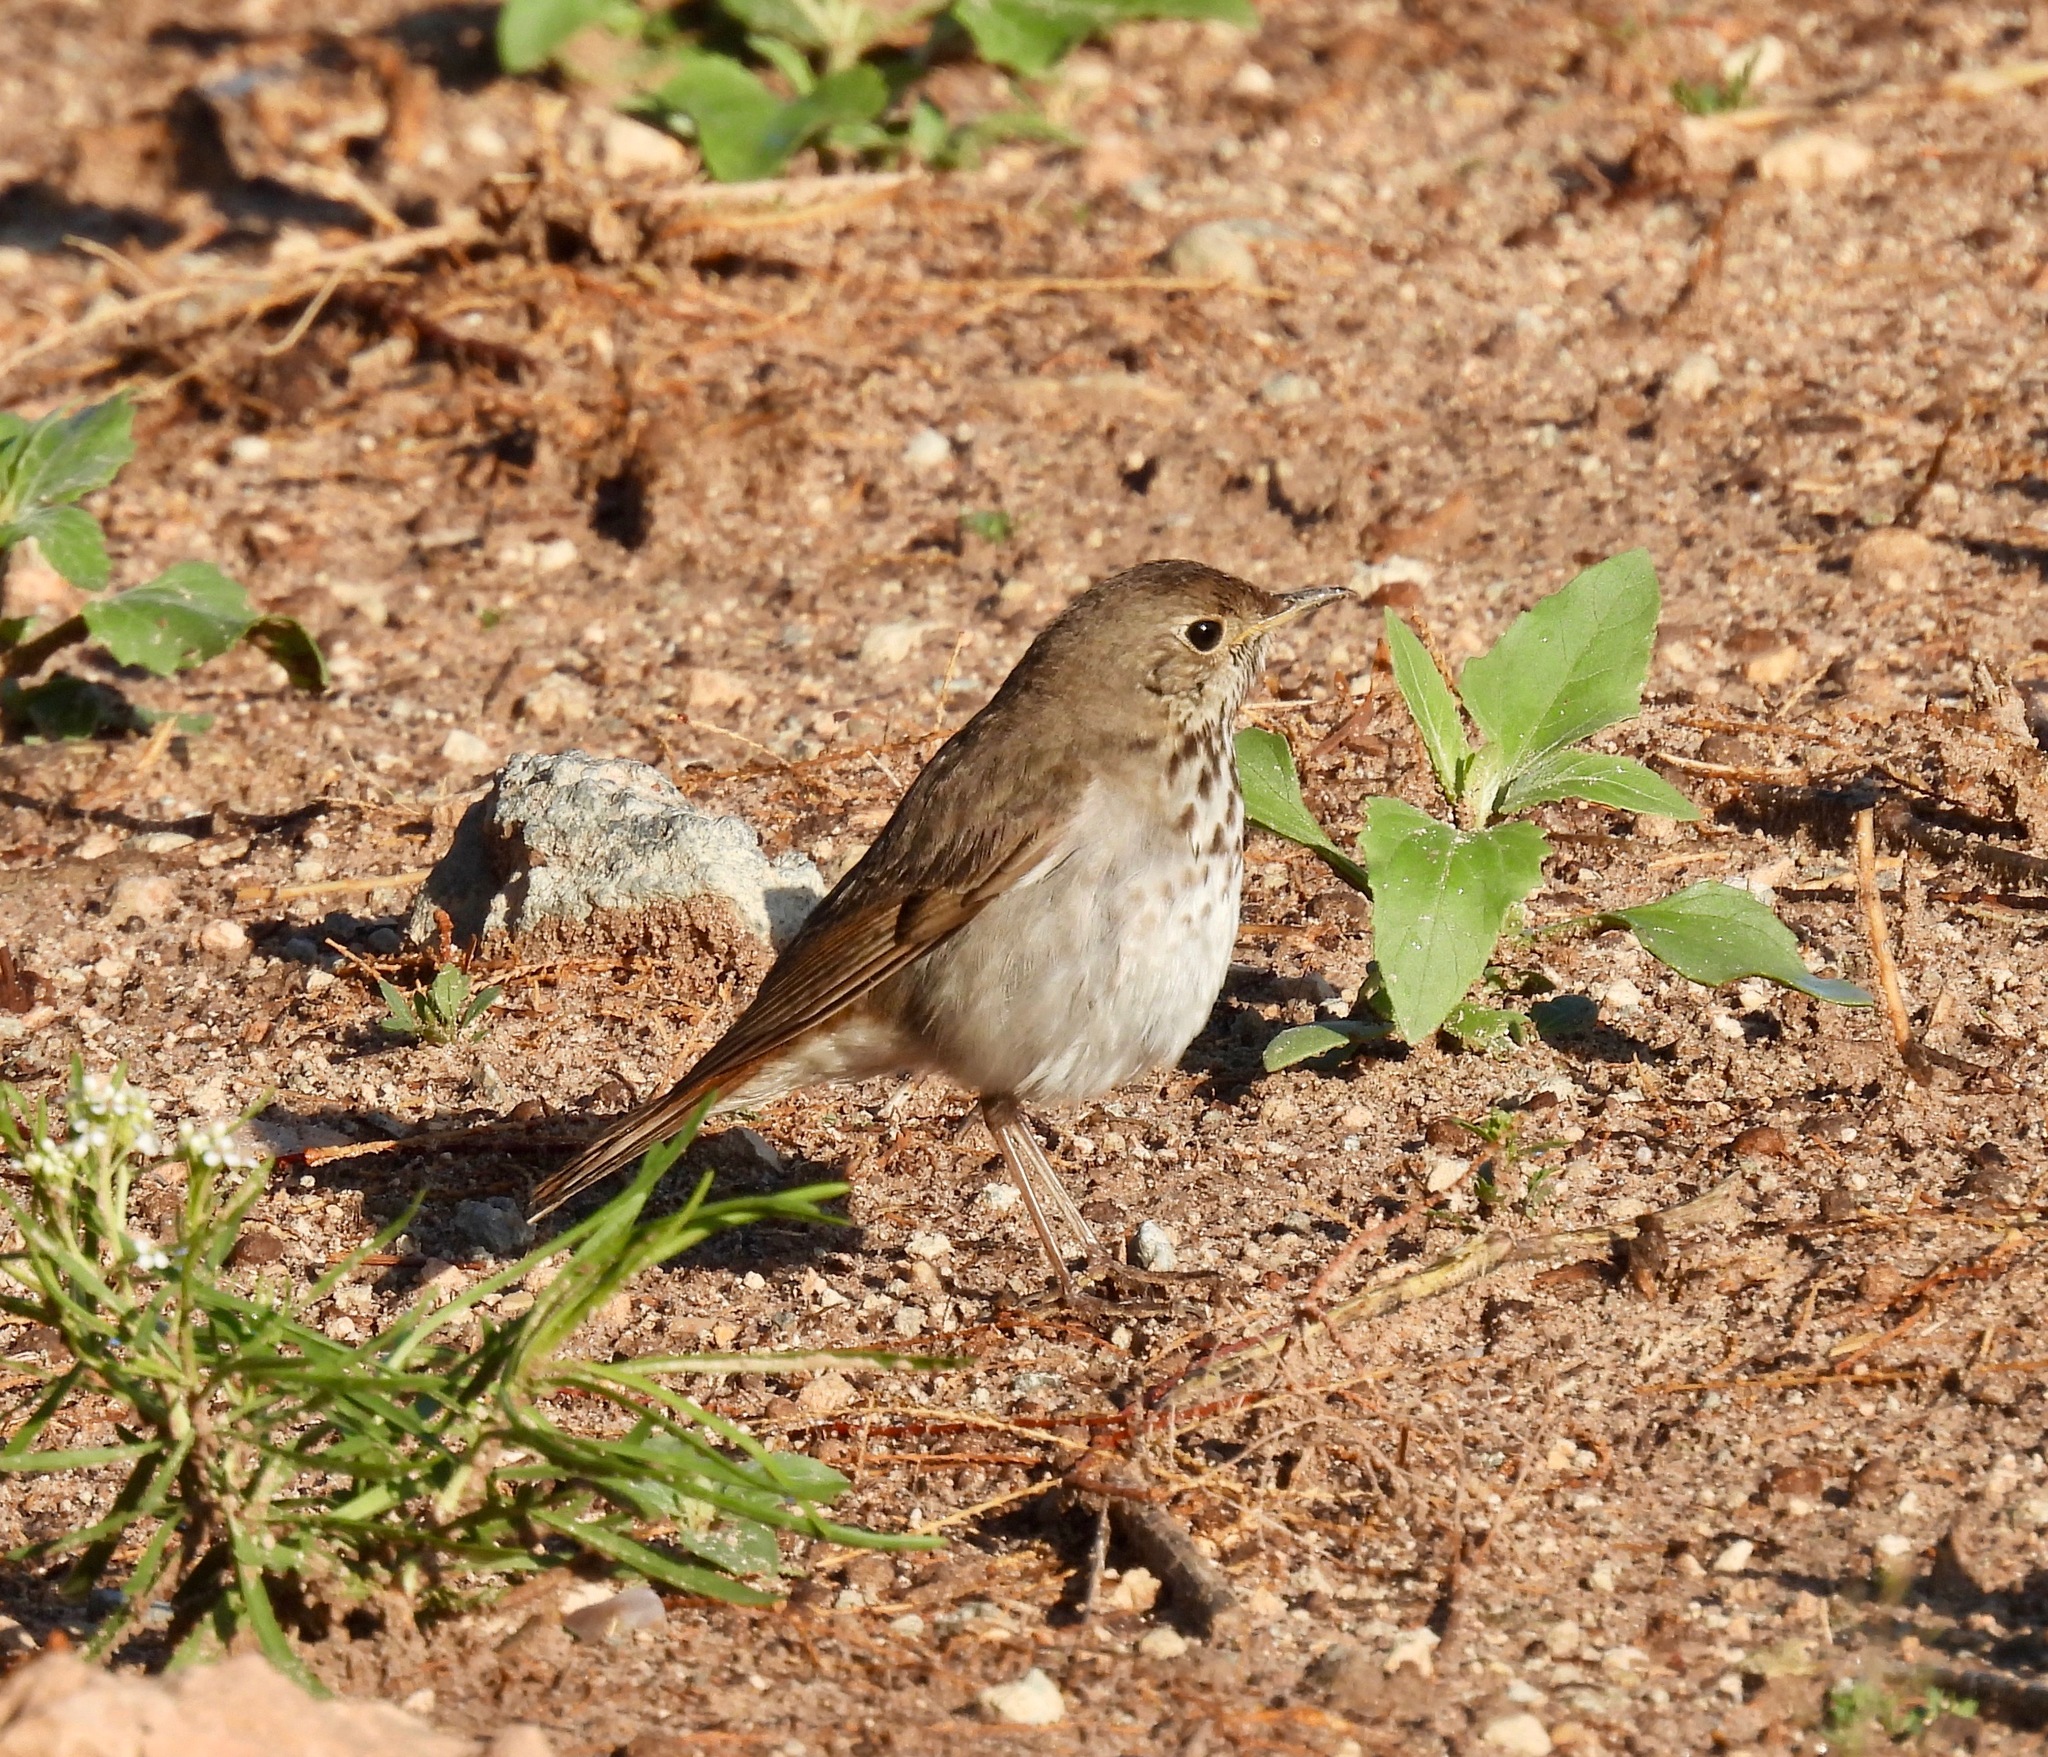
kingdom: Animalia
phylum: Chordata
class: Aves
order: Passeriformes
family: Turdidae
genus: Catharus
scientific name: Catharus guttatus
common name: Hermit thrush
